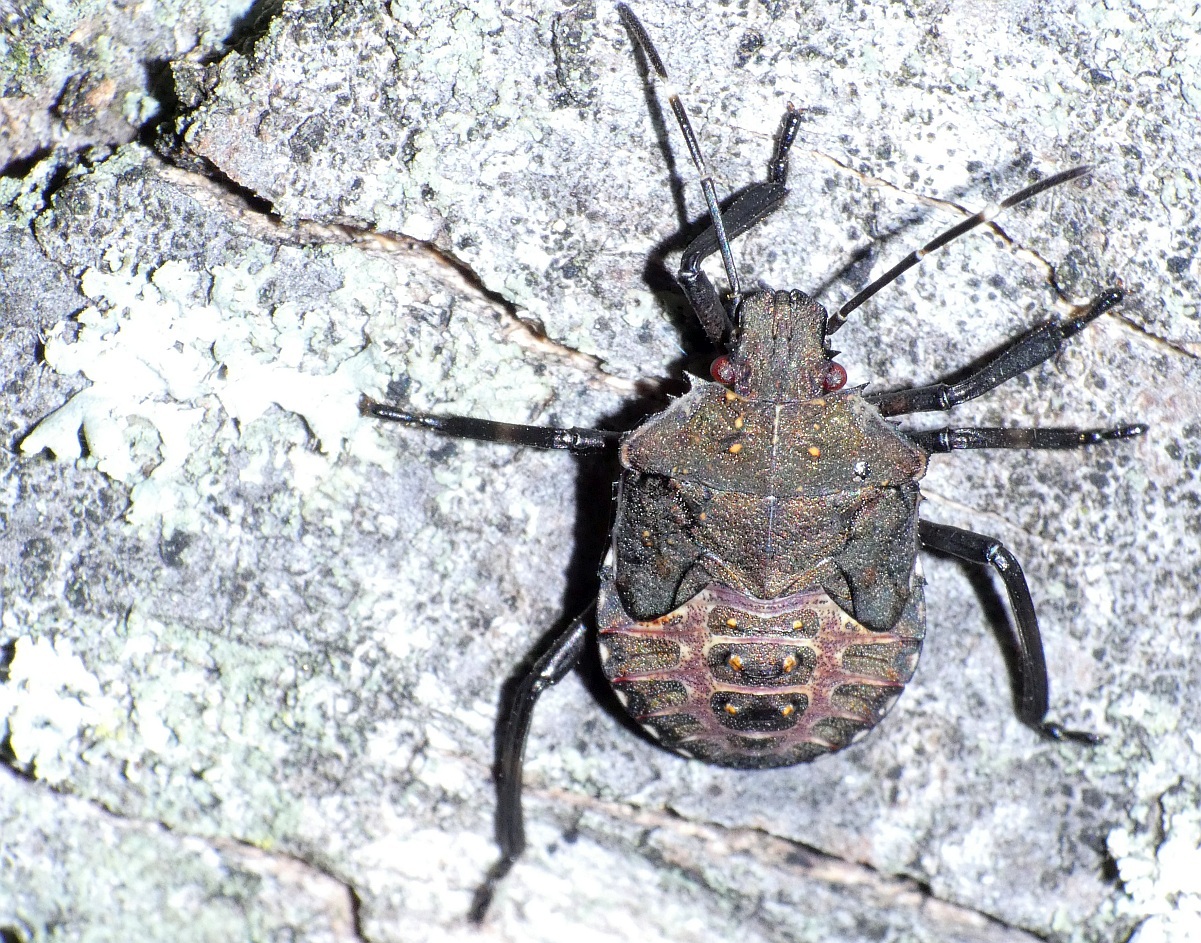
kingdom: Animalia
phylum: Arthropoda
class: Insecta
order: Hemiptera
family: Pentatomidae
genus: Halyomorpha
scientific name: Halyomorpha halys
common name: Brown marmorated stink bug
